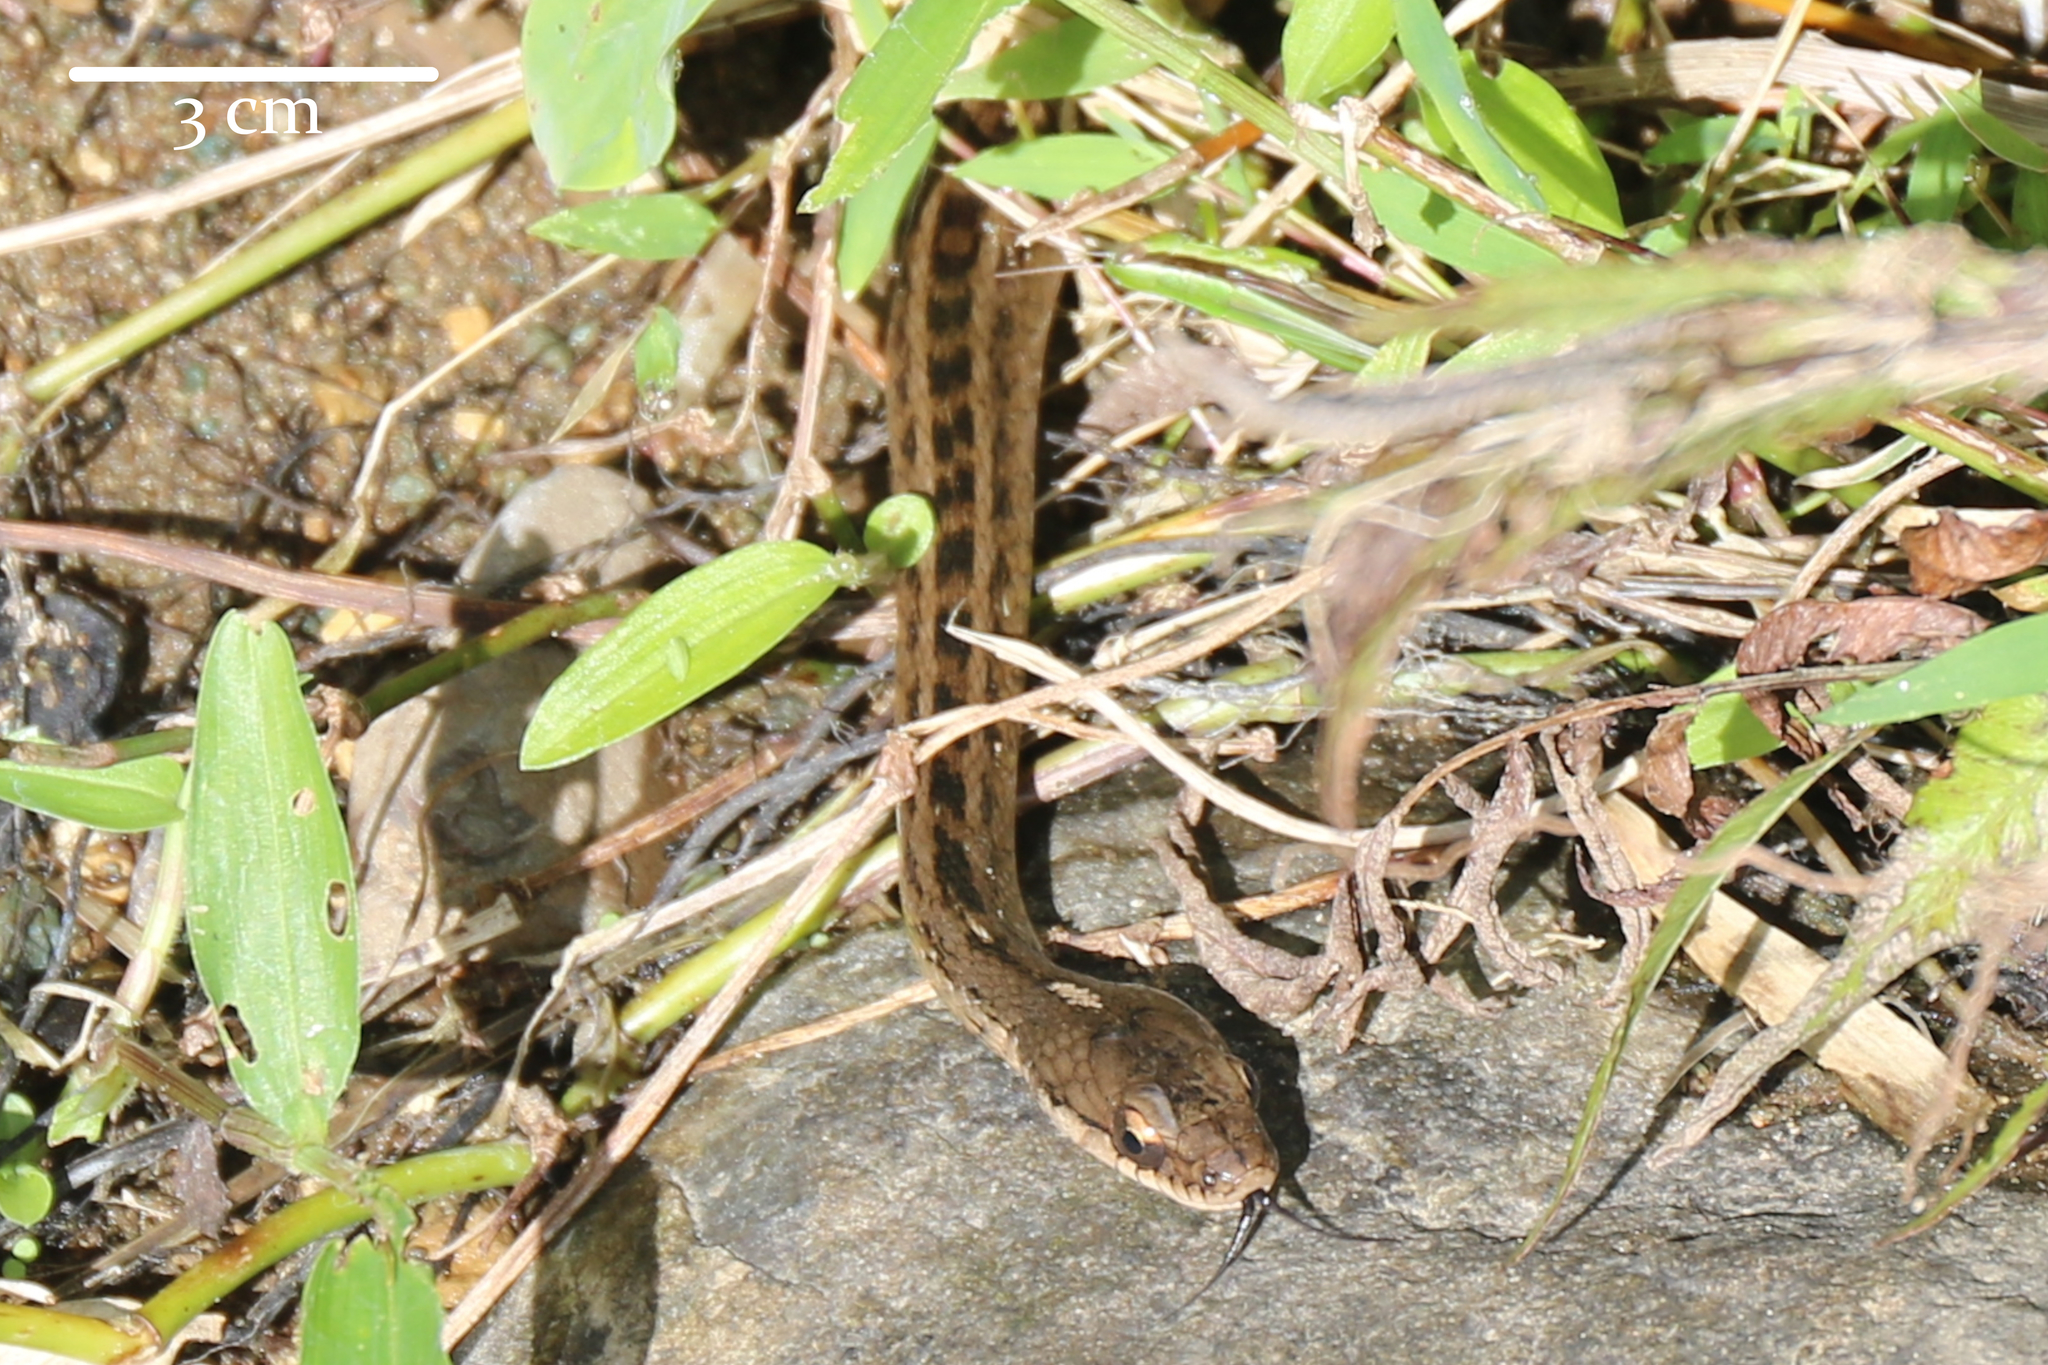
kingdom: Animalia
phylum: Chordata
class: Squamata
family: Colubridae
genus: Tropidonophis
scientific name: Tropidonophis
